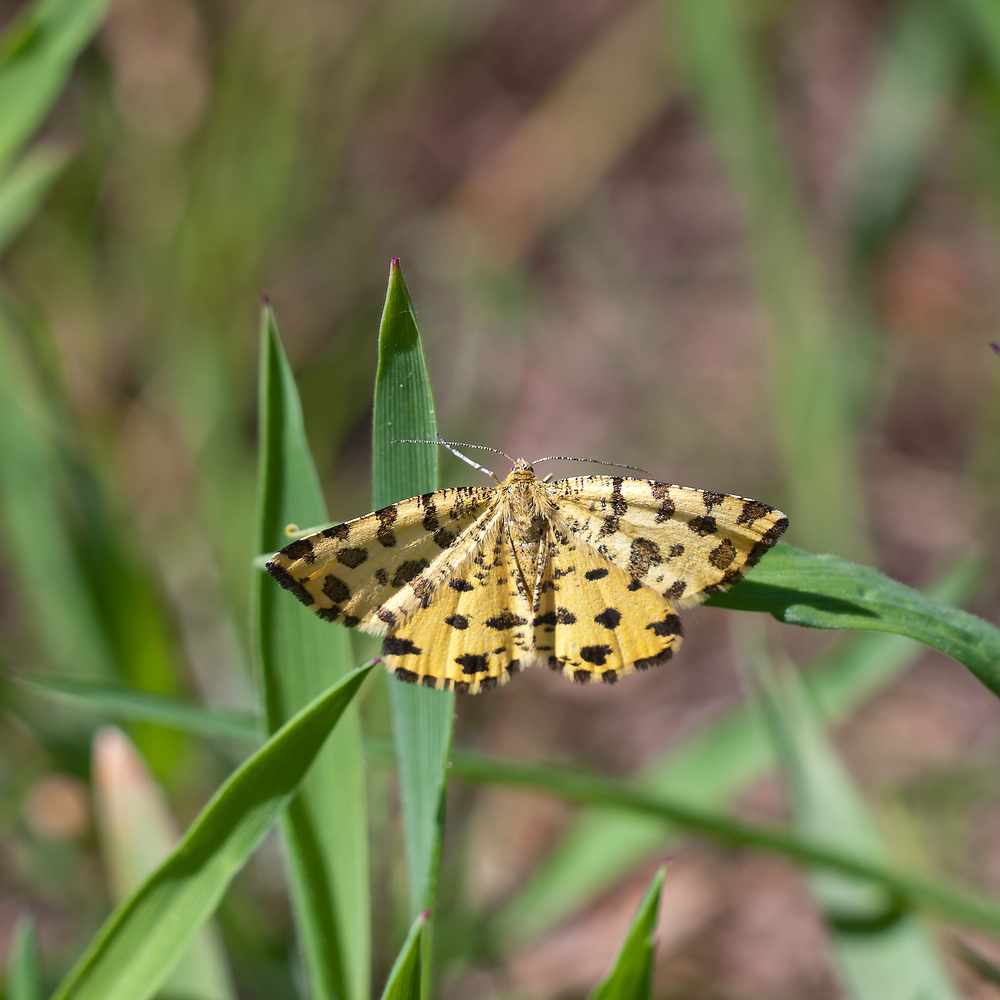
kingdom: Animalia
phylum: Arthropoda
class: Insecta
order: Lepidoptera
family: Geometridae
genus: Pseudopanthera
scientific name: Pseudopanthera macularia
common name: Speckled yellow
